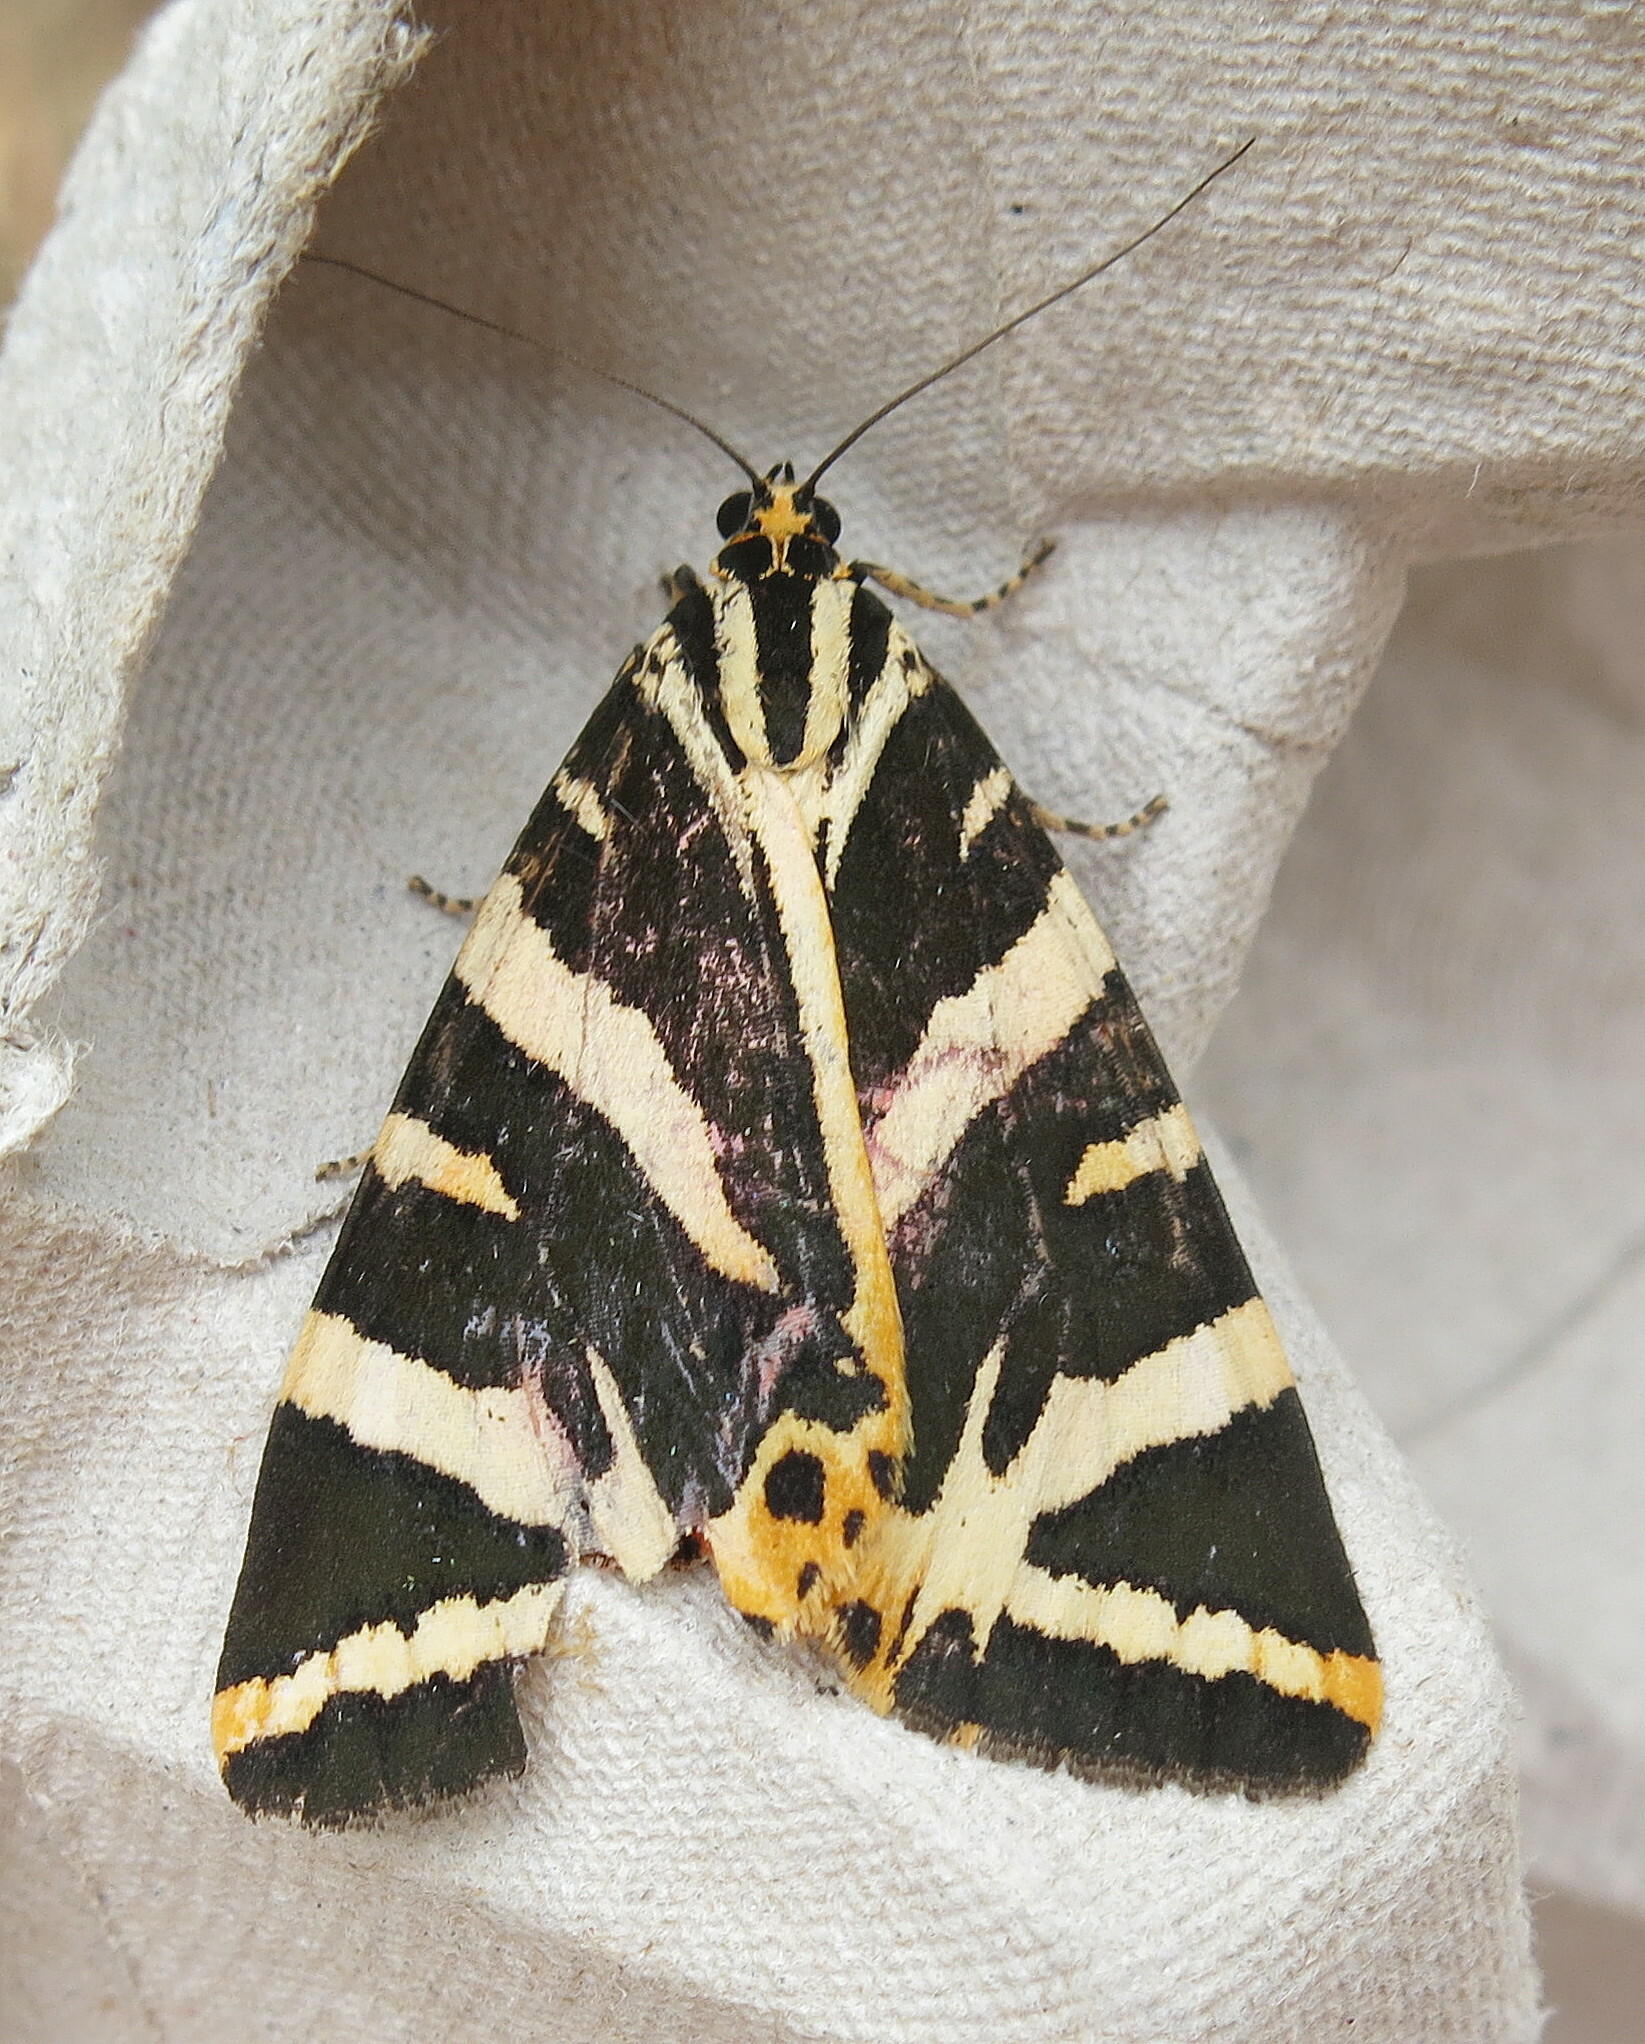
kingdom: Animalia
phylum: Arthropoda
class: Insecta
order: Lepidoptera
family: Erebidae
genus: Euplagia
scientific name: Euplagia quadripunctaria
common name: Jersey tiger
